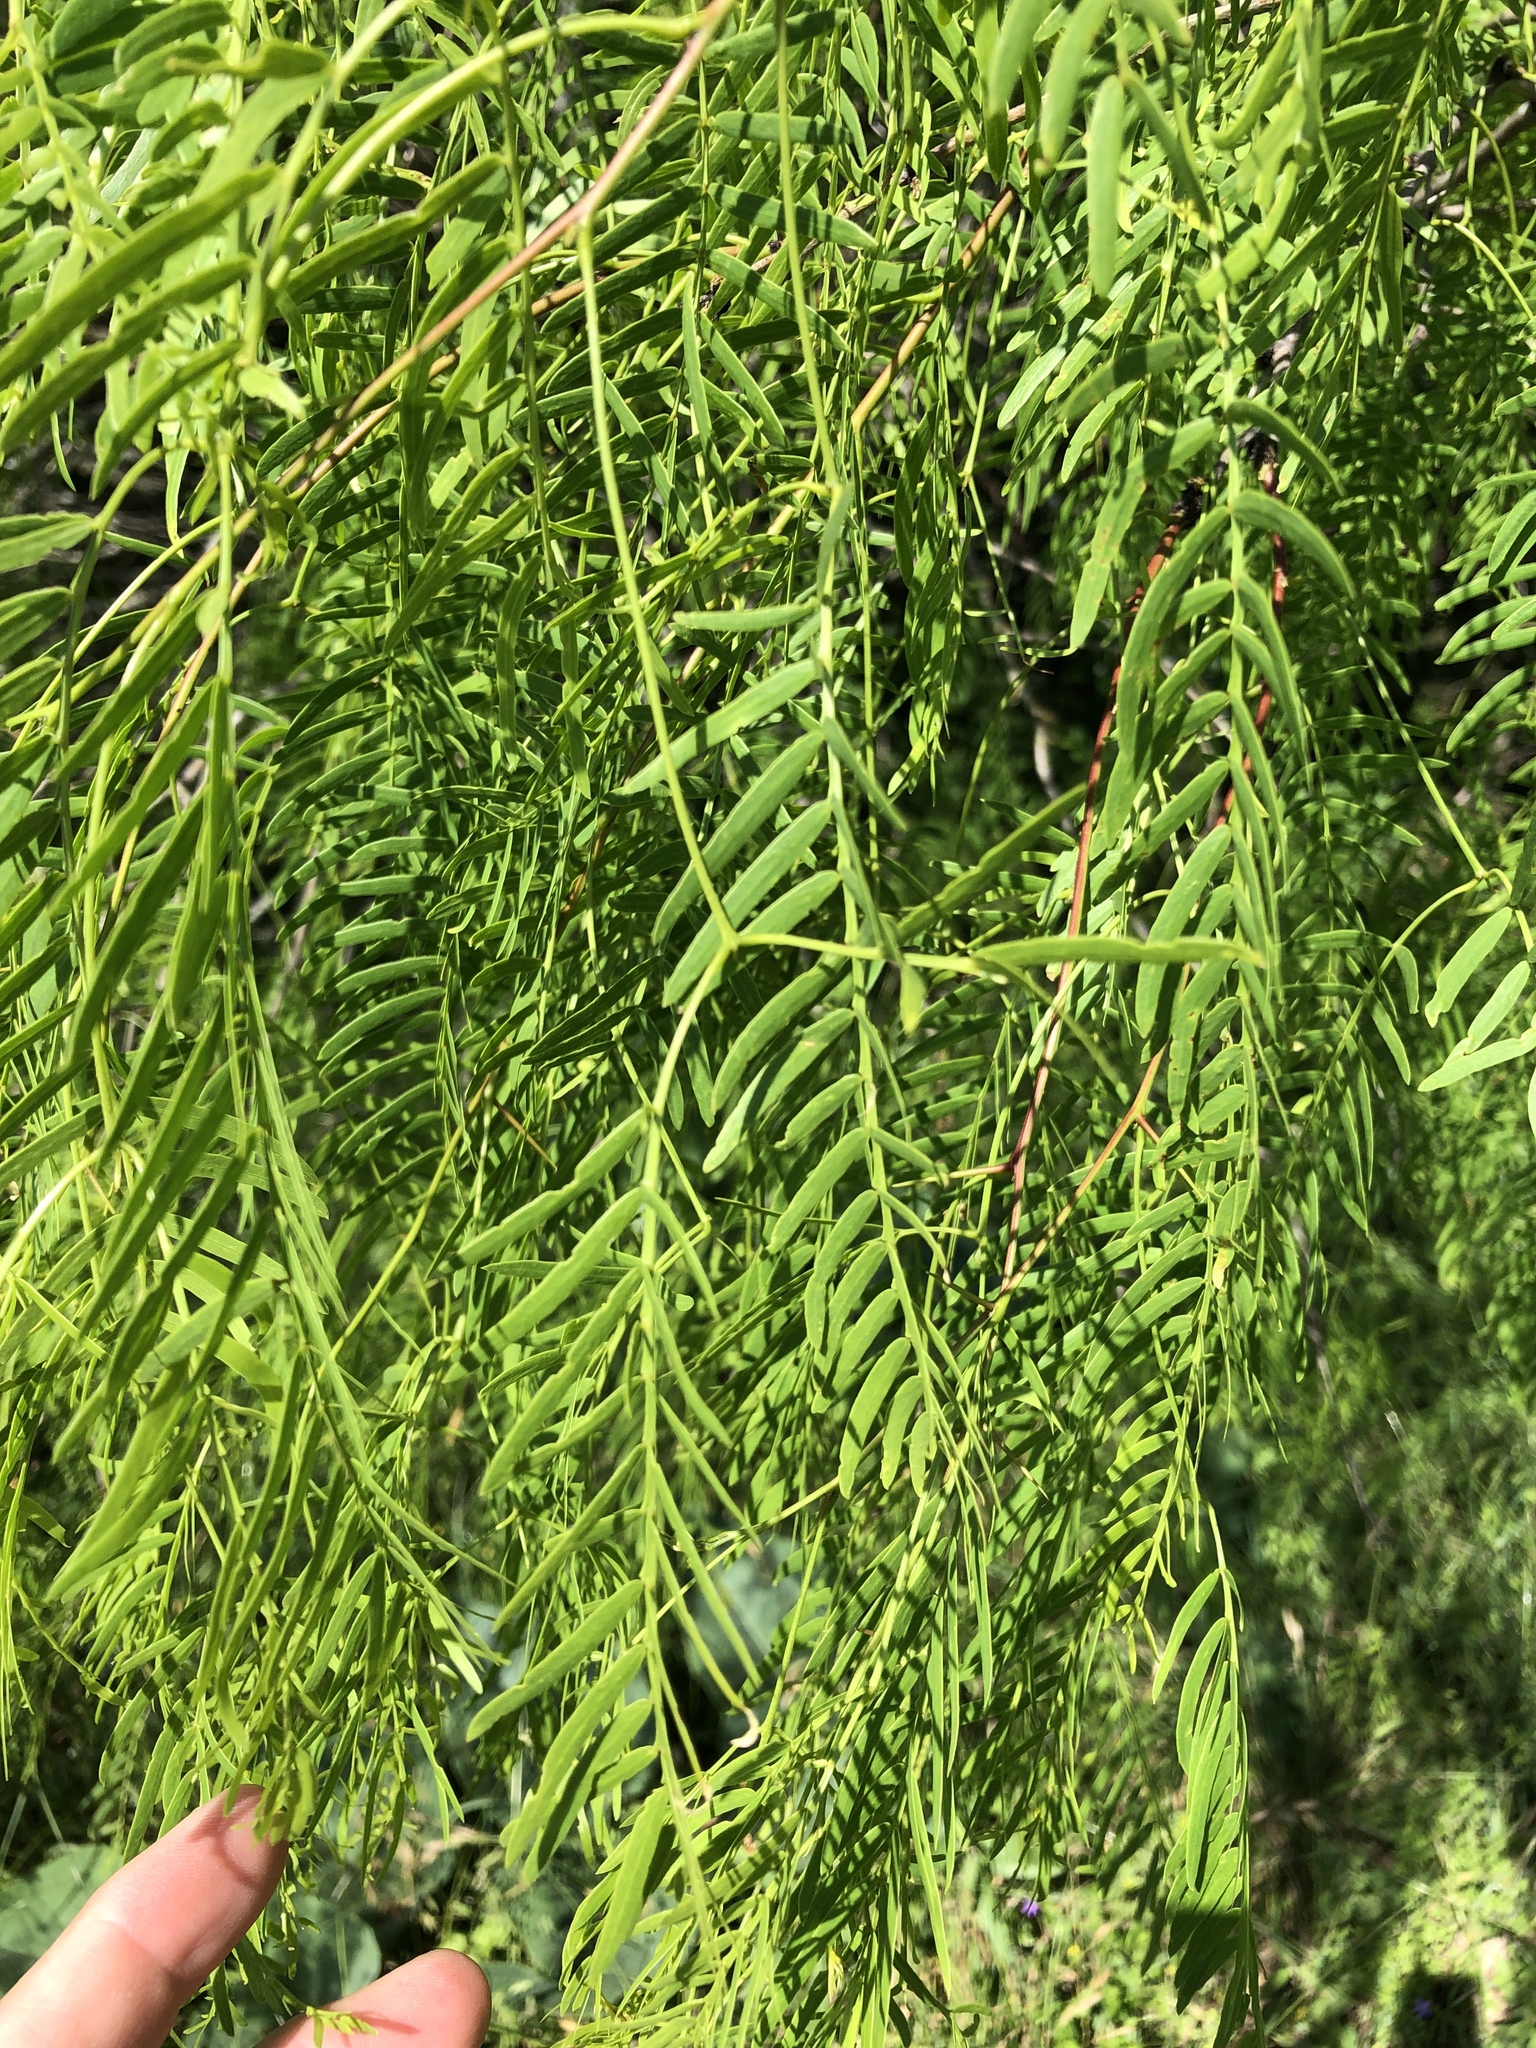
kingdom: Plantae
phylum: Tracheophyta
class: Magnoliopsida
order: Fabales
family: Fabaceae
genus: Prosopis
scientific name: Prosopis glandulosa
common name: Honey mesquite
